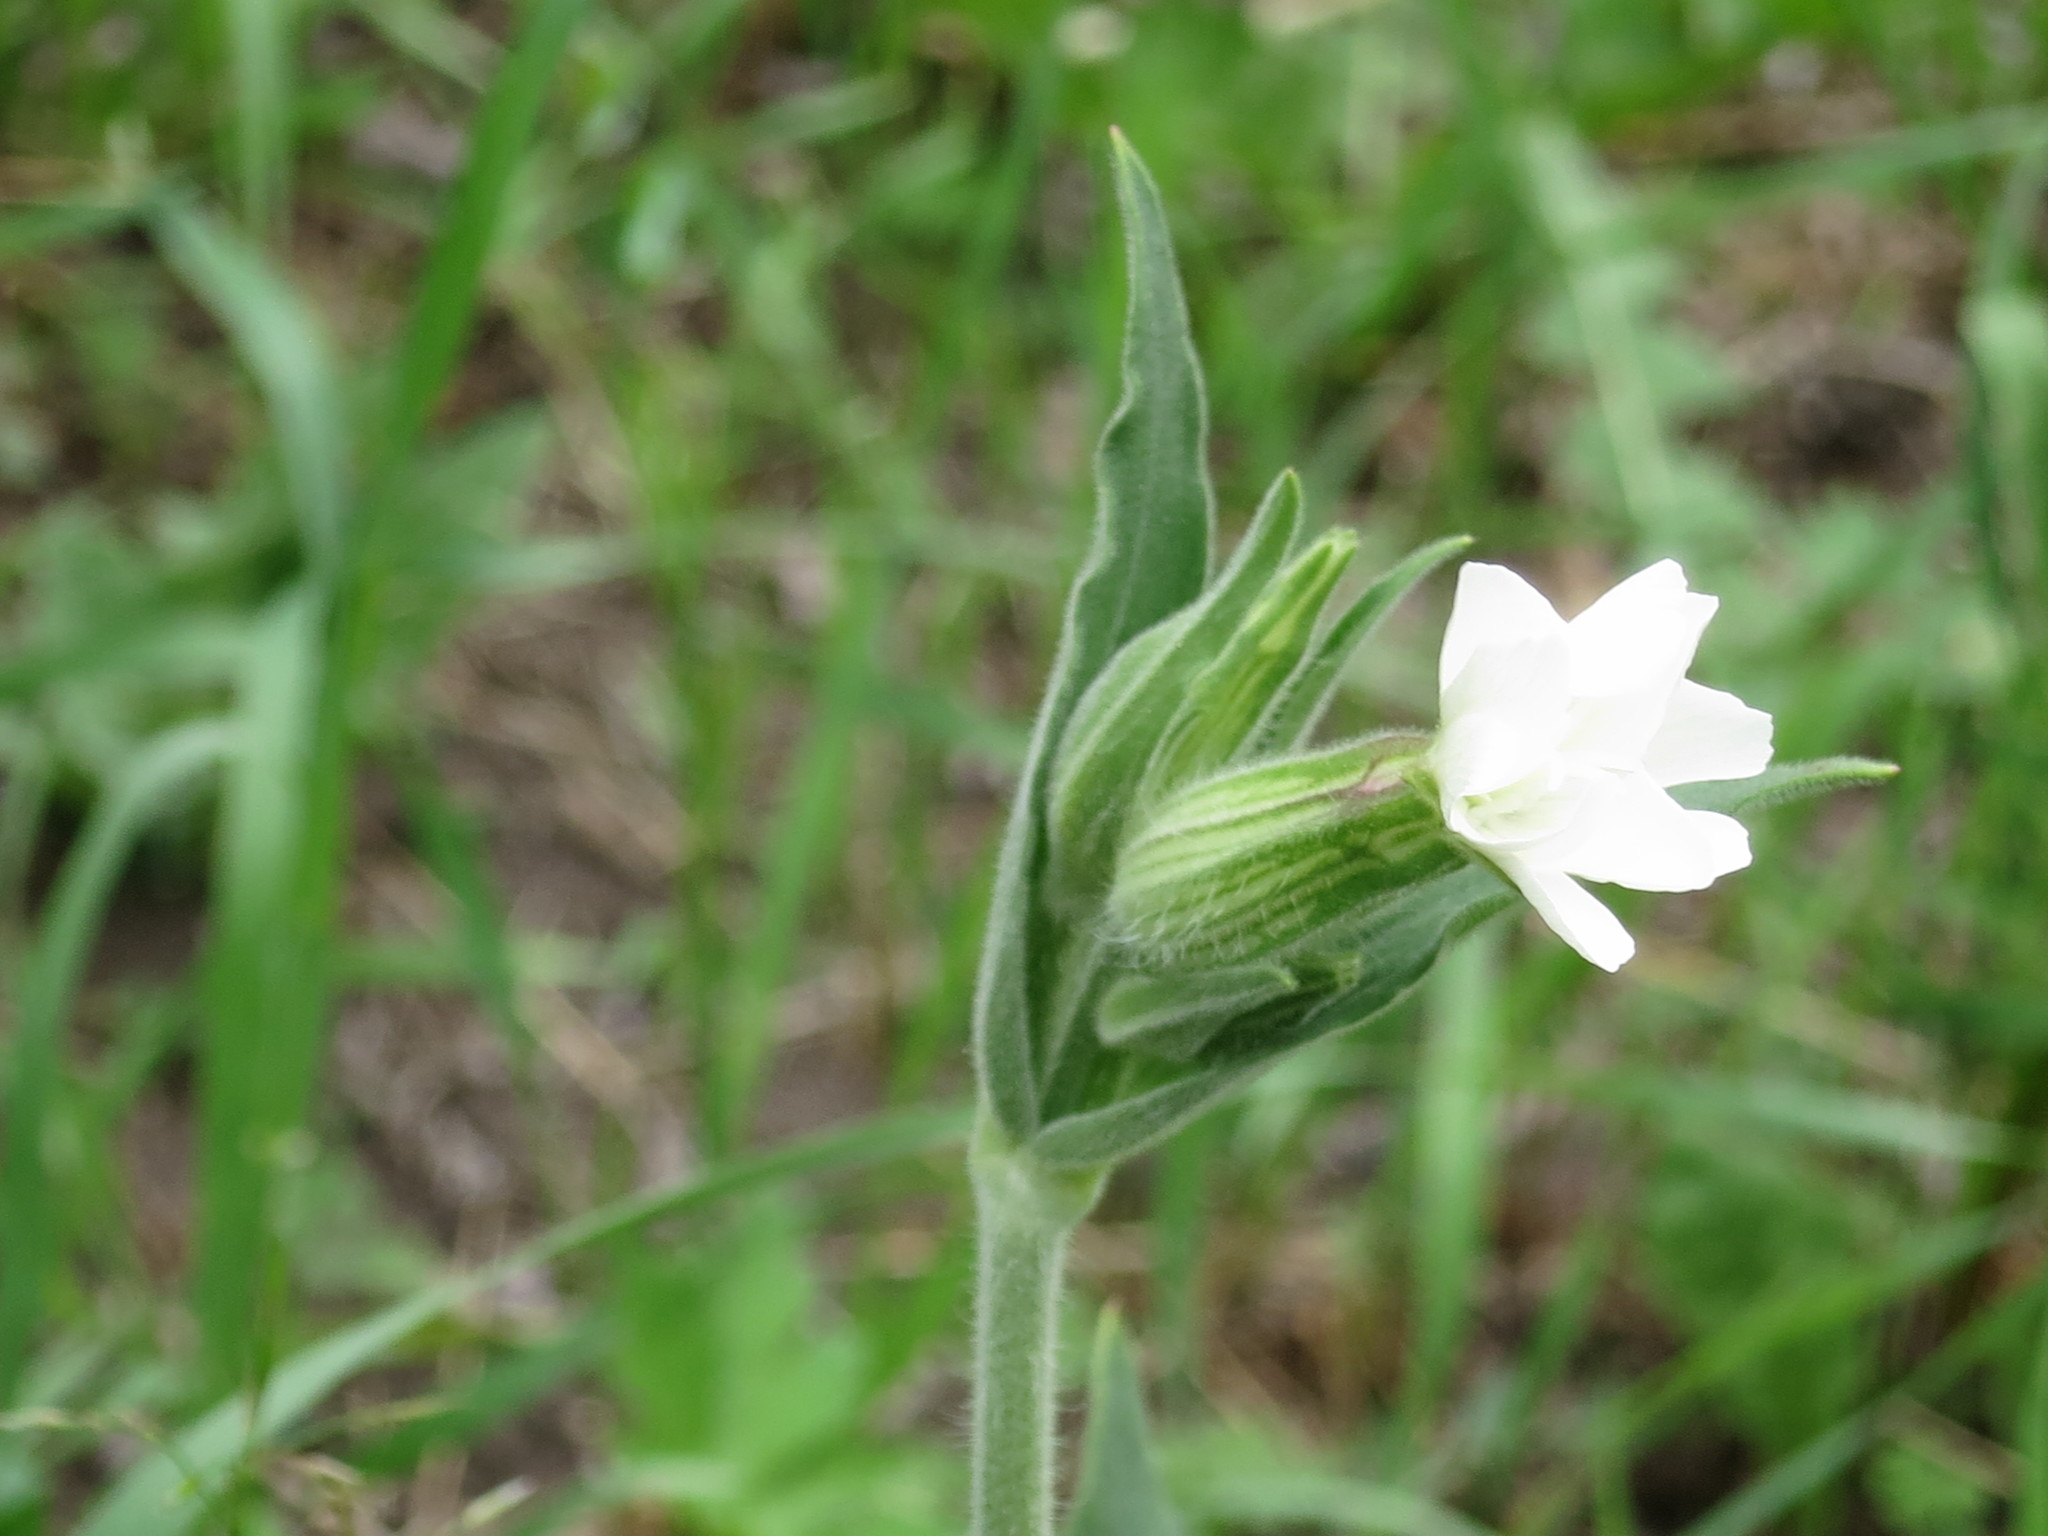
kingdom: Plantae
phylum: Tracheophyta
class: Magnoliopsida
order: Caryophyllales
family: Caryophyllaceae
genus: Silene
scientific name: Silene latifolia
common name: White campion
